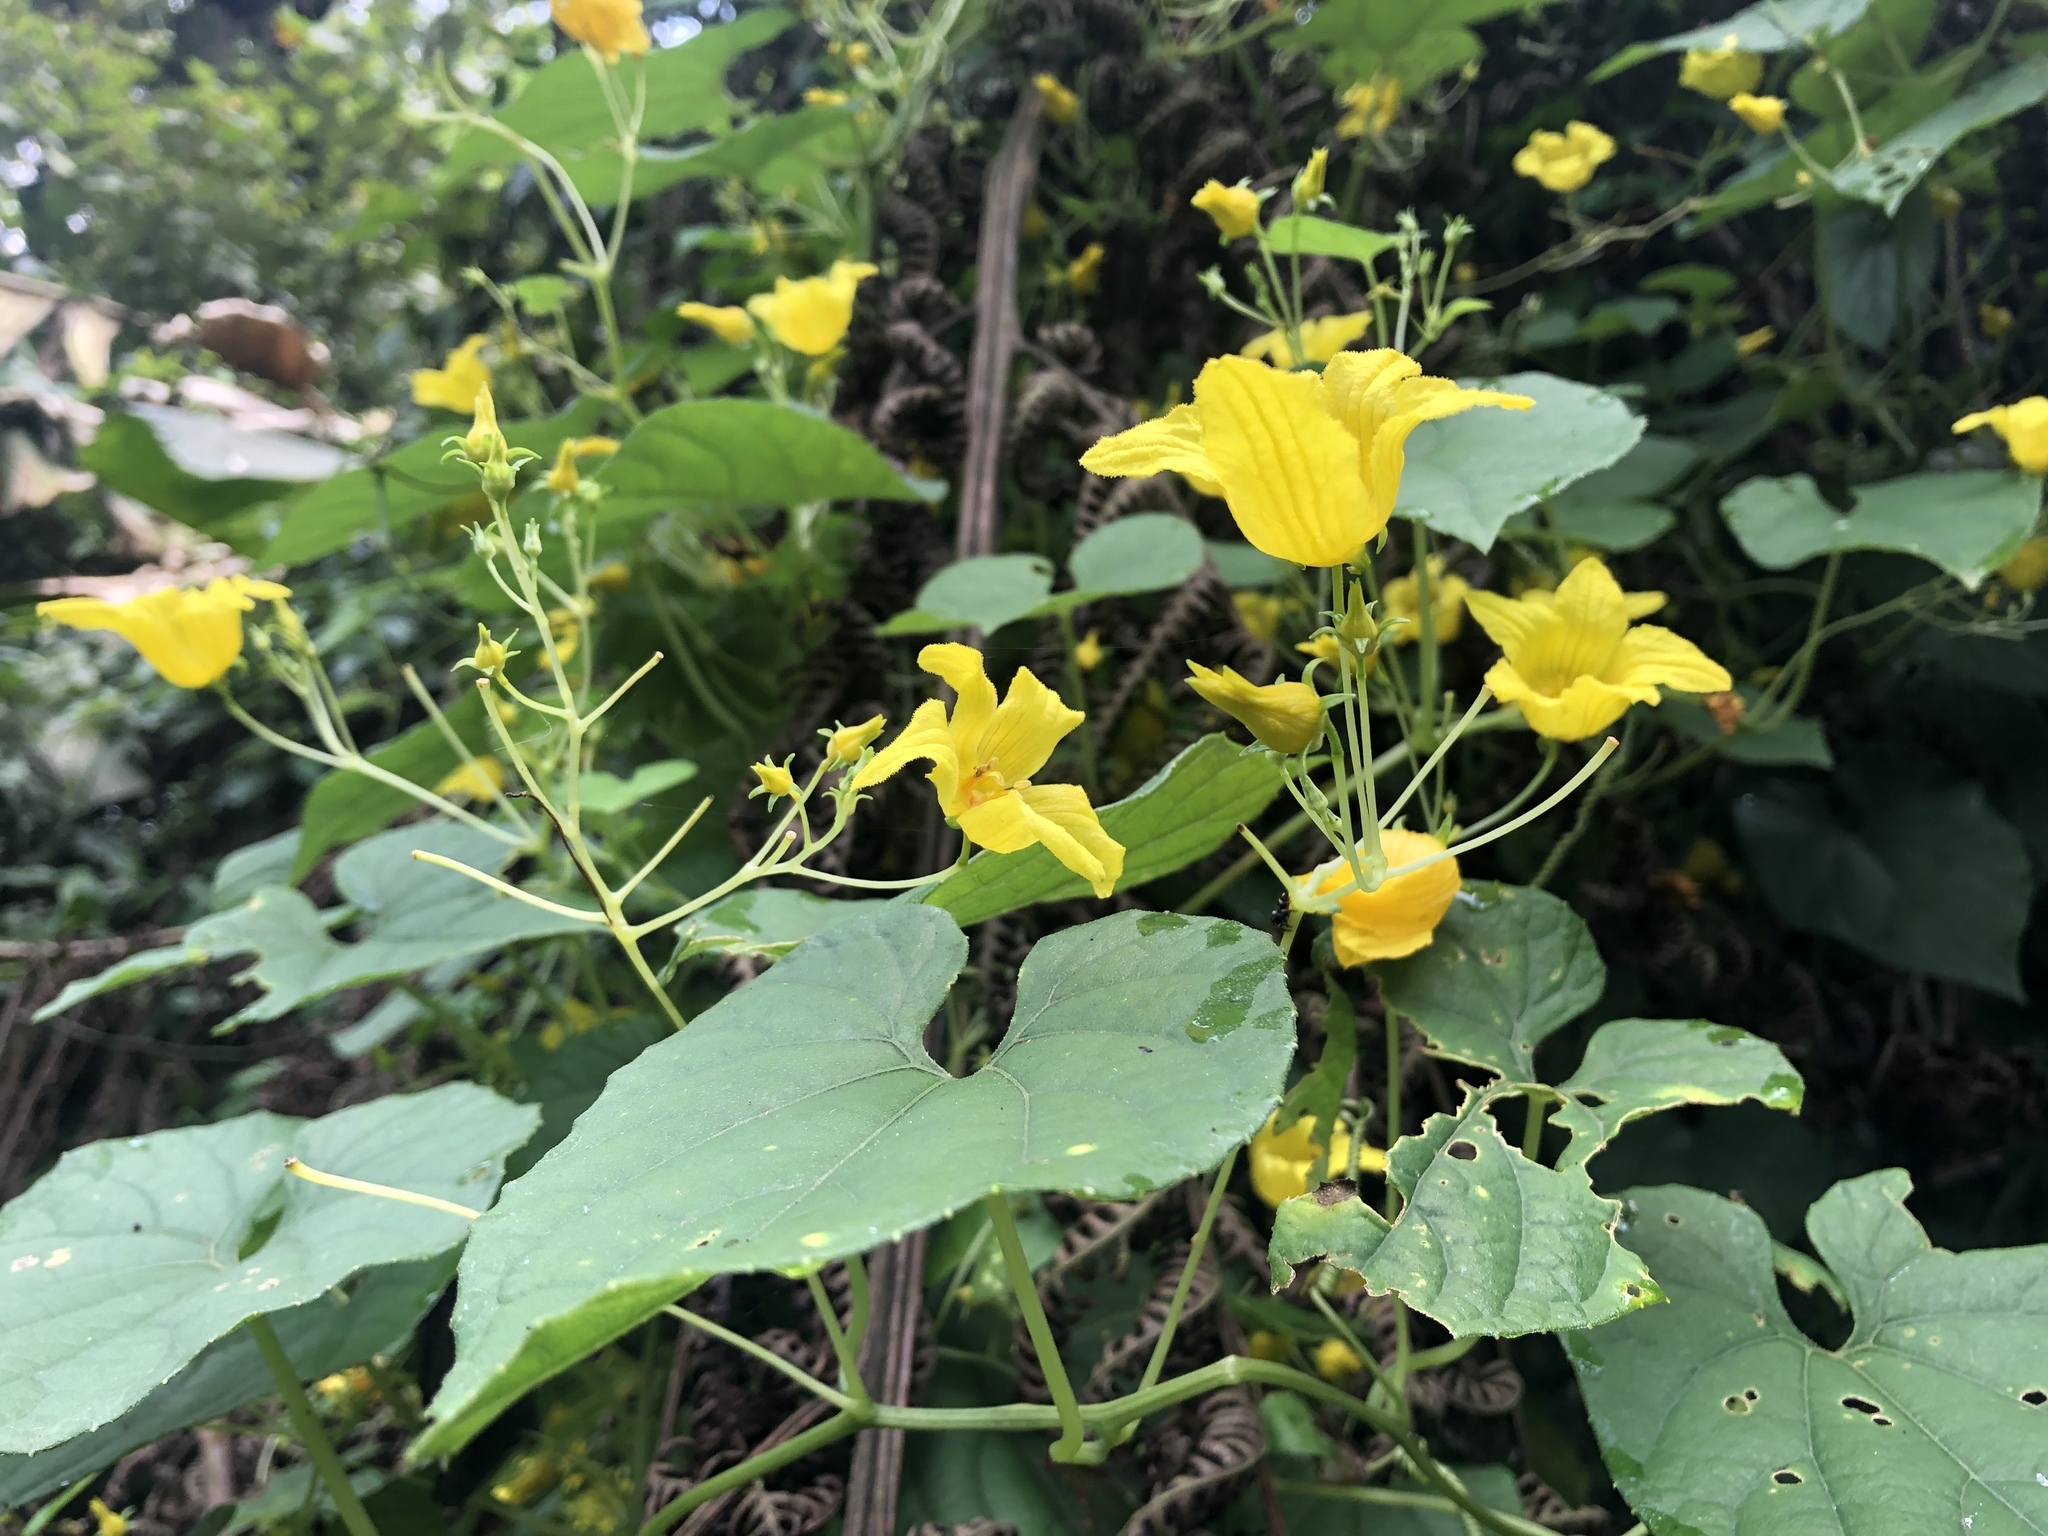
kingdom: Plantae
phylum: Tracheophyta
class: Magnoliopsida
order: Cucurbitales
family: Cucurbitaceae
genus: Thladiantha
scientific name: Thladiantha punctata
